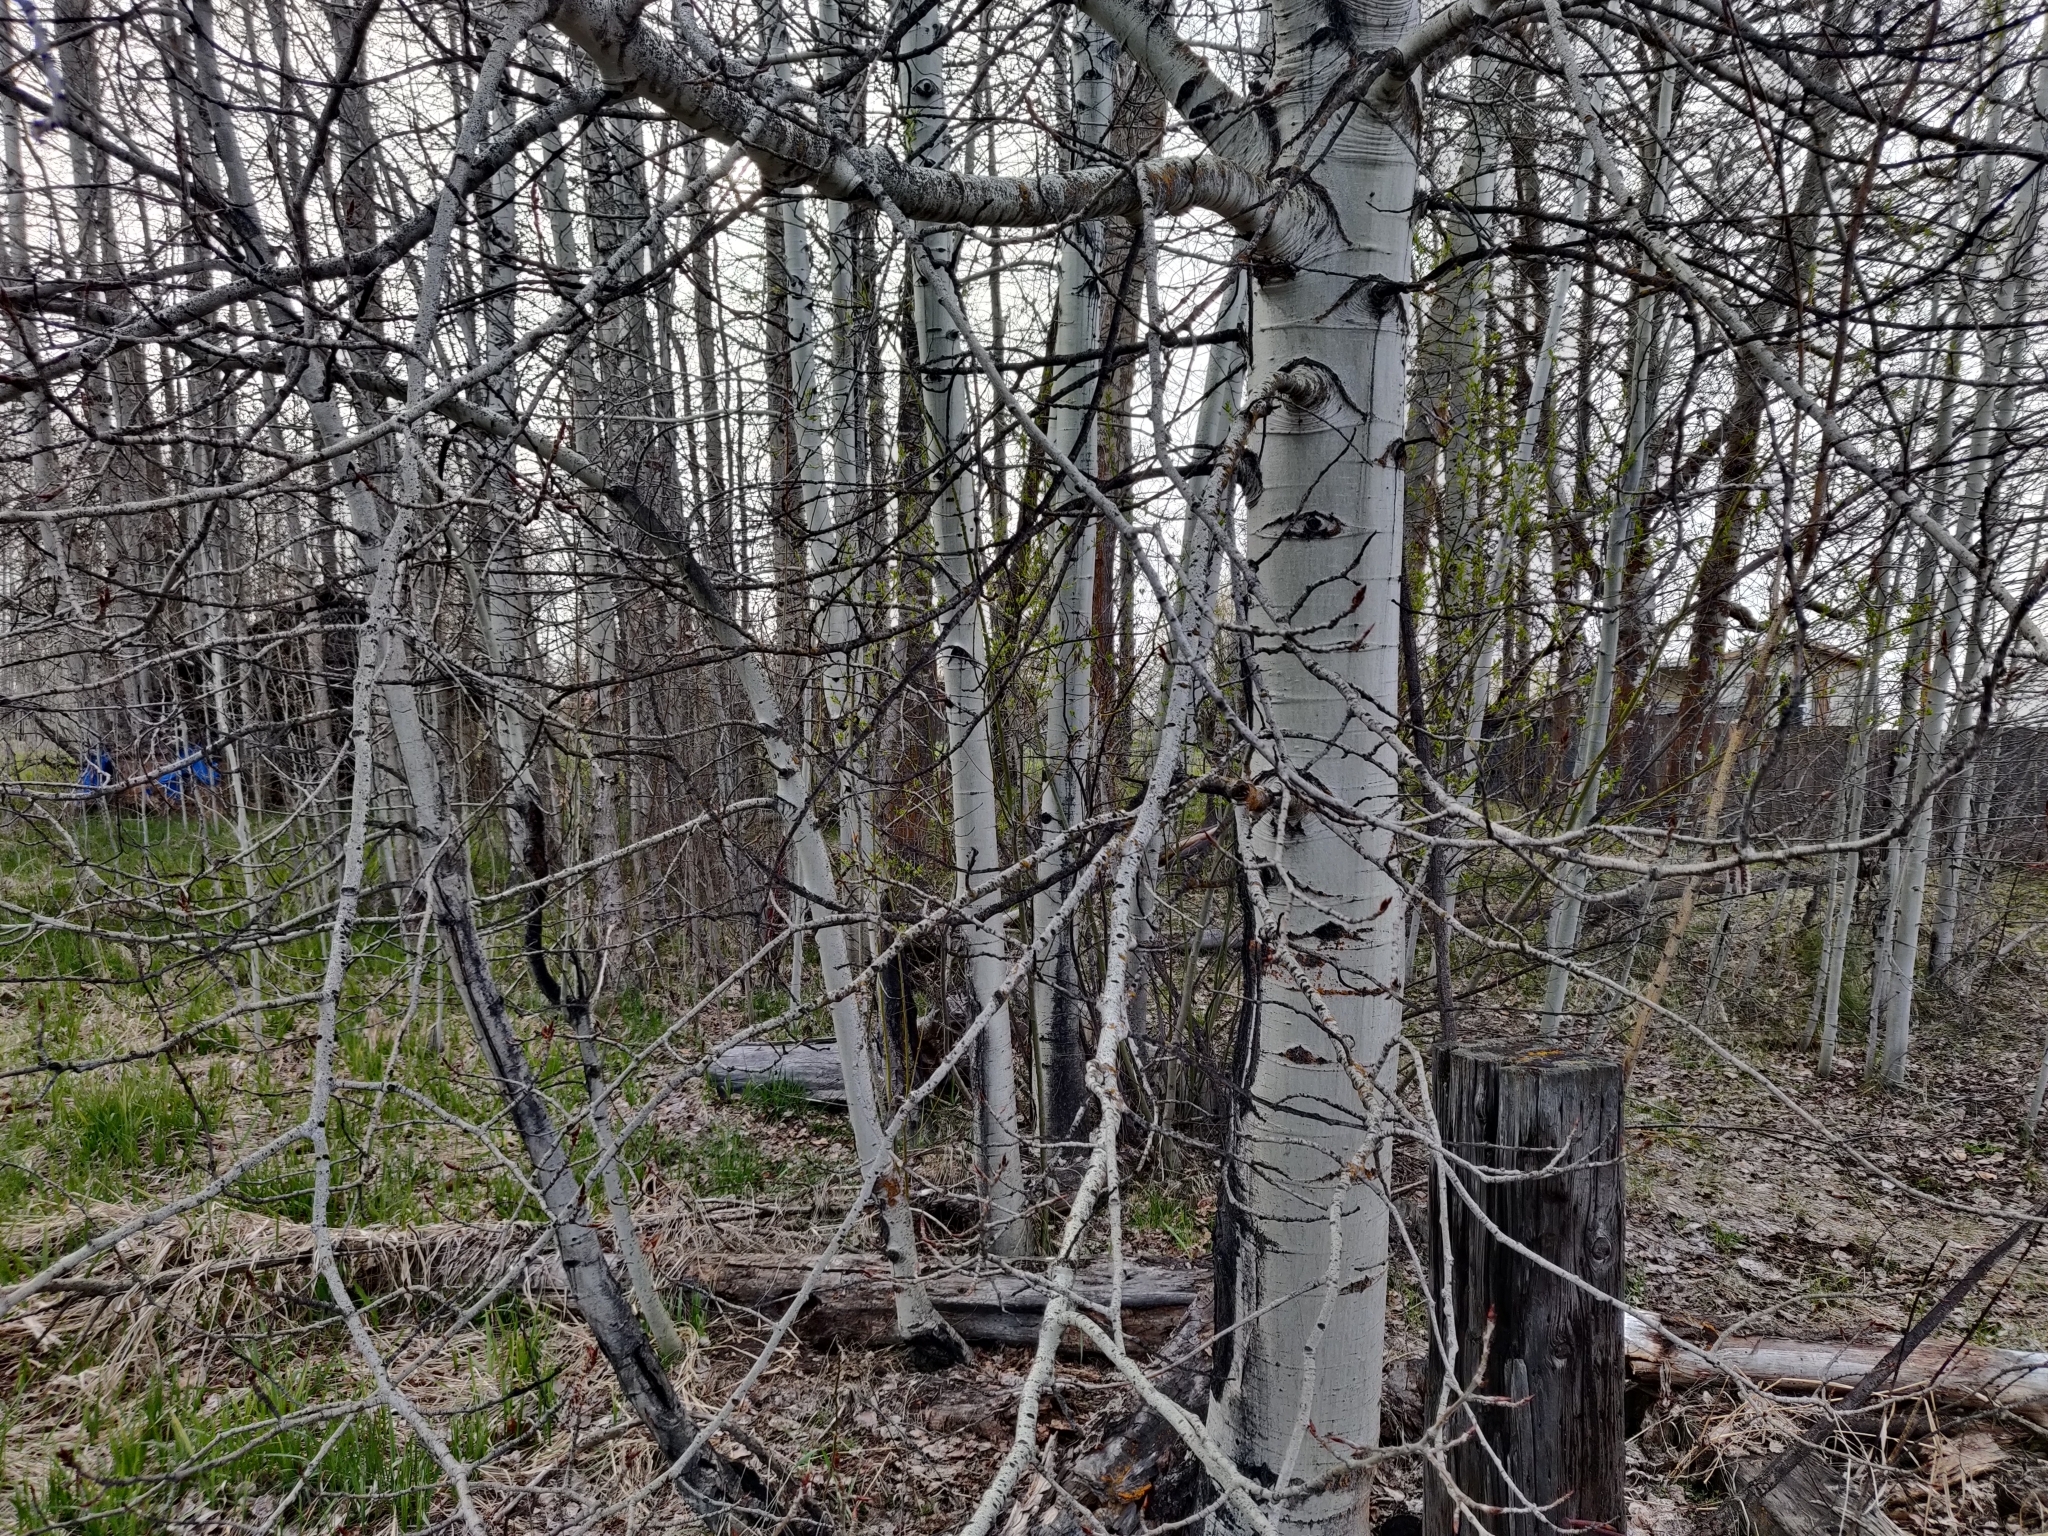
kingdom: Plantae
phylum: Tracheophyta
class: Magnoliopsida
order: Malpighiales
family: Salicaceae
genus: Populus
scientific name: Populus tremuloides
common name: Quaking aspen
